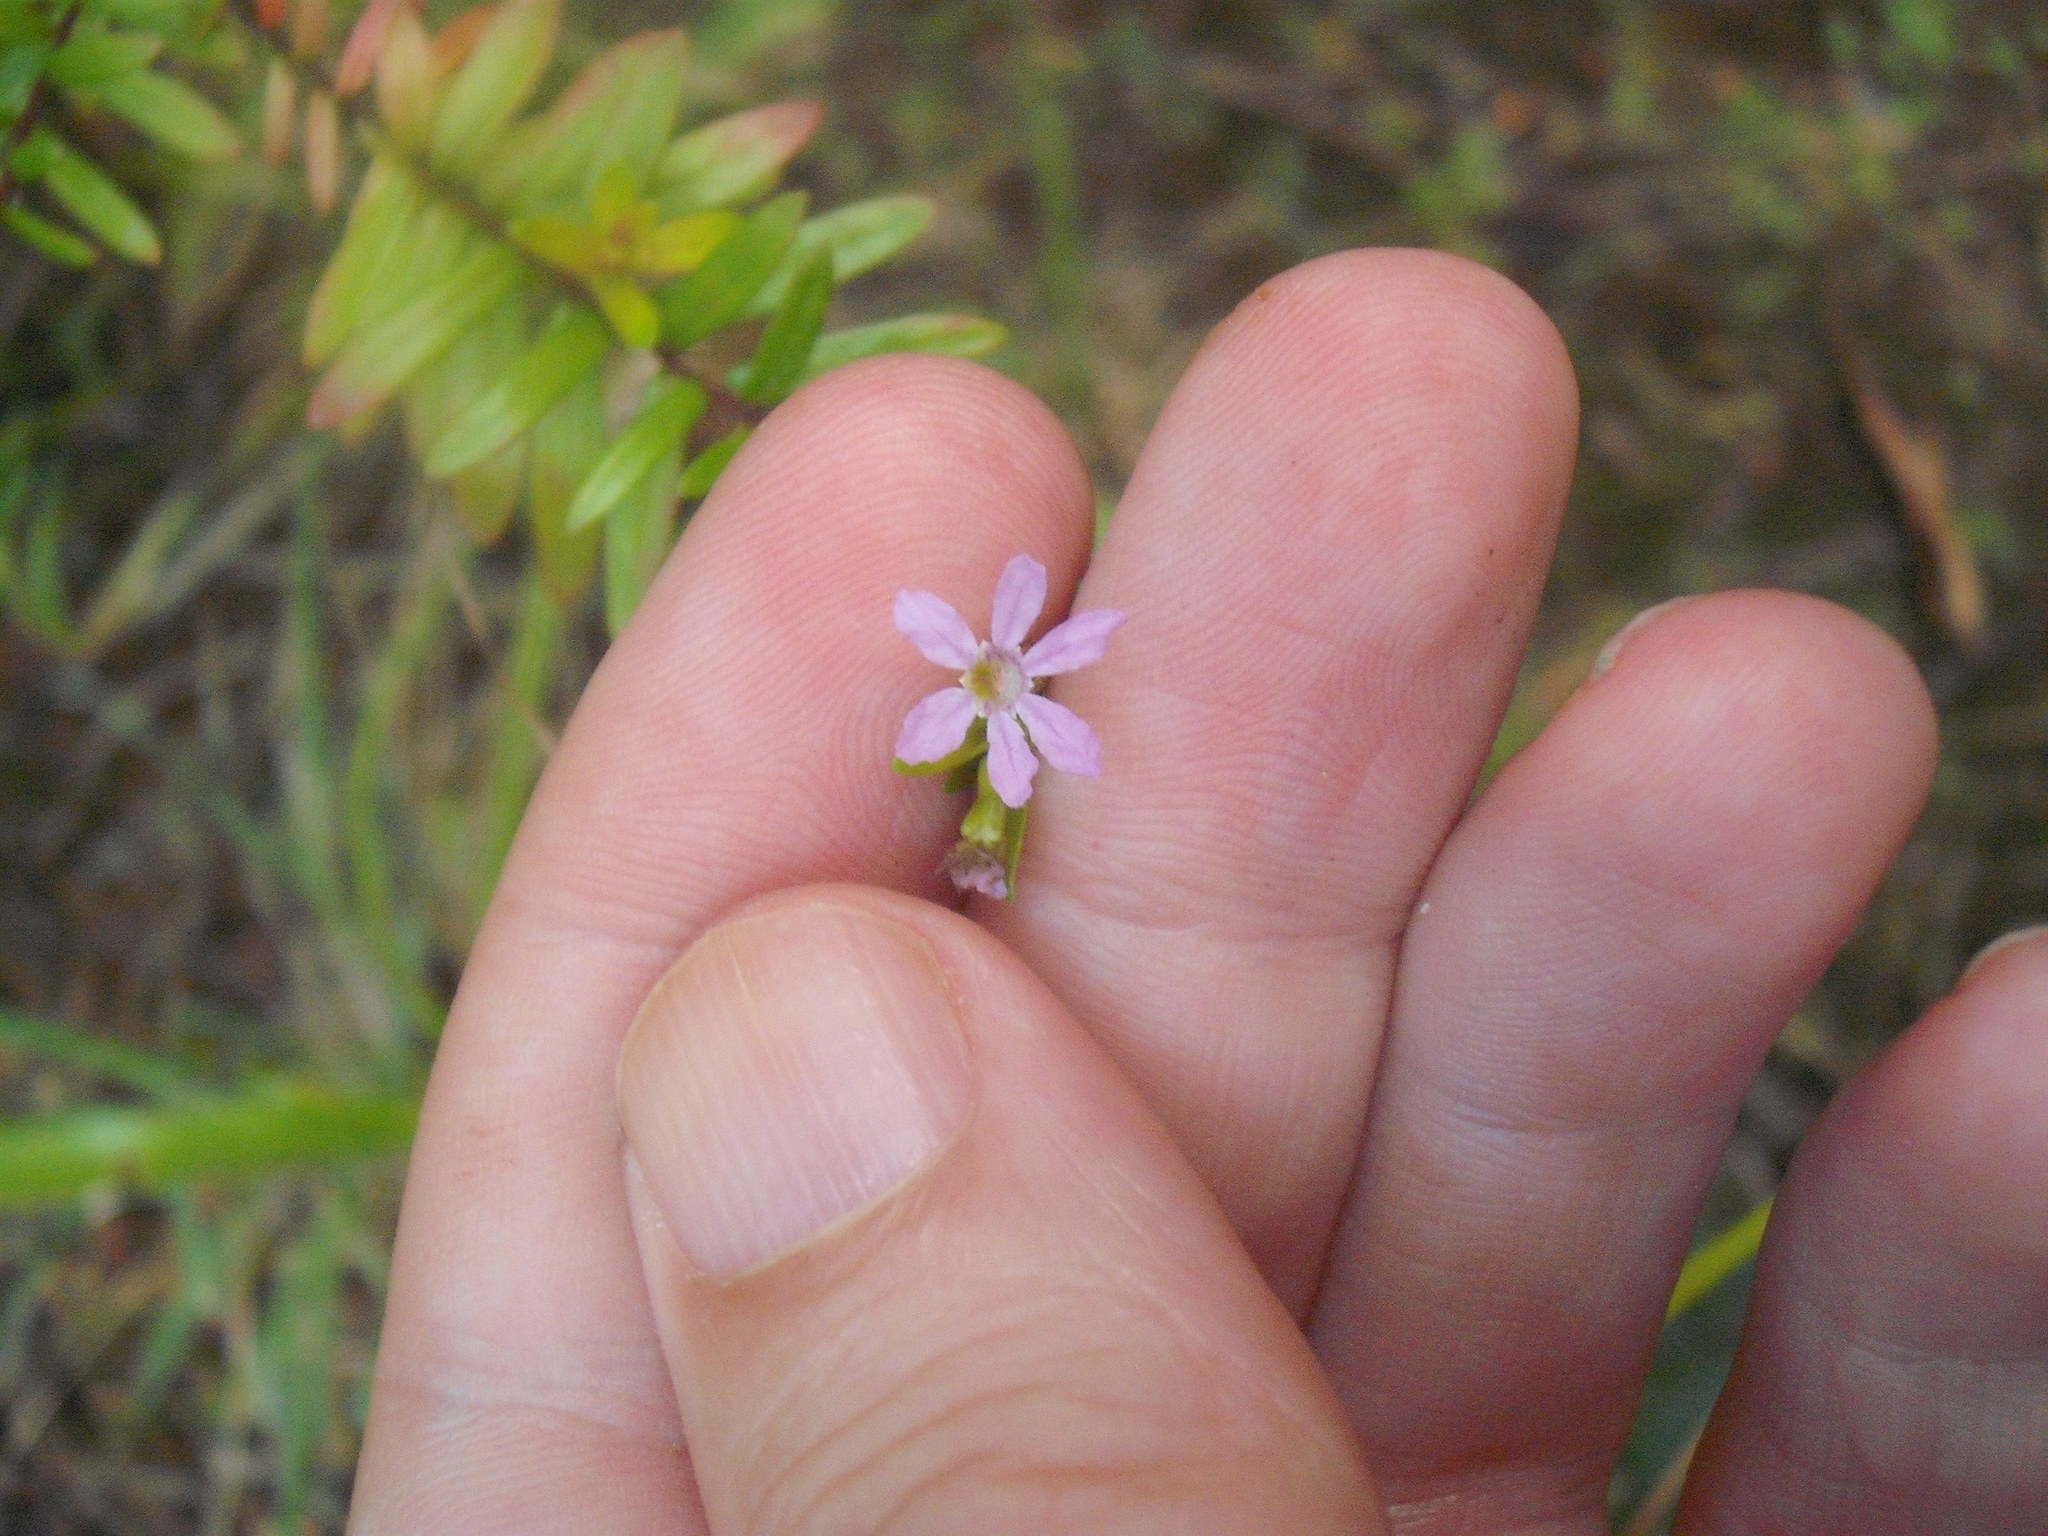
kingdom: Plantae
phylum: Tracheophyta
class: Magnoliopsida
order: Myrtales
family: Lythraceae
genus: Cuphea
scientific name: Cuphea hyssopifolia
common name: False heather
